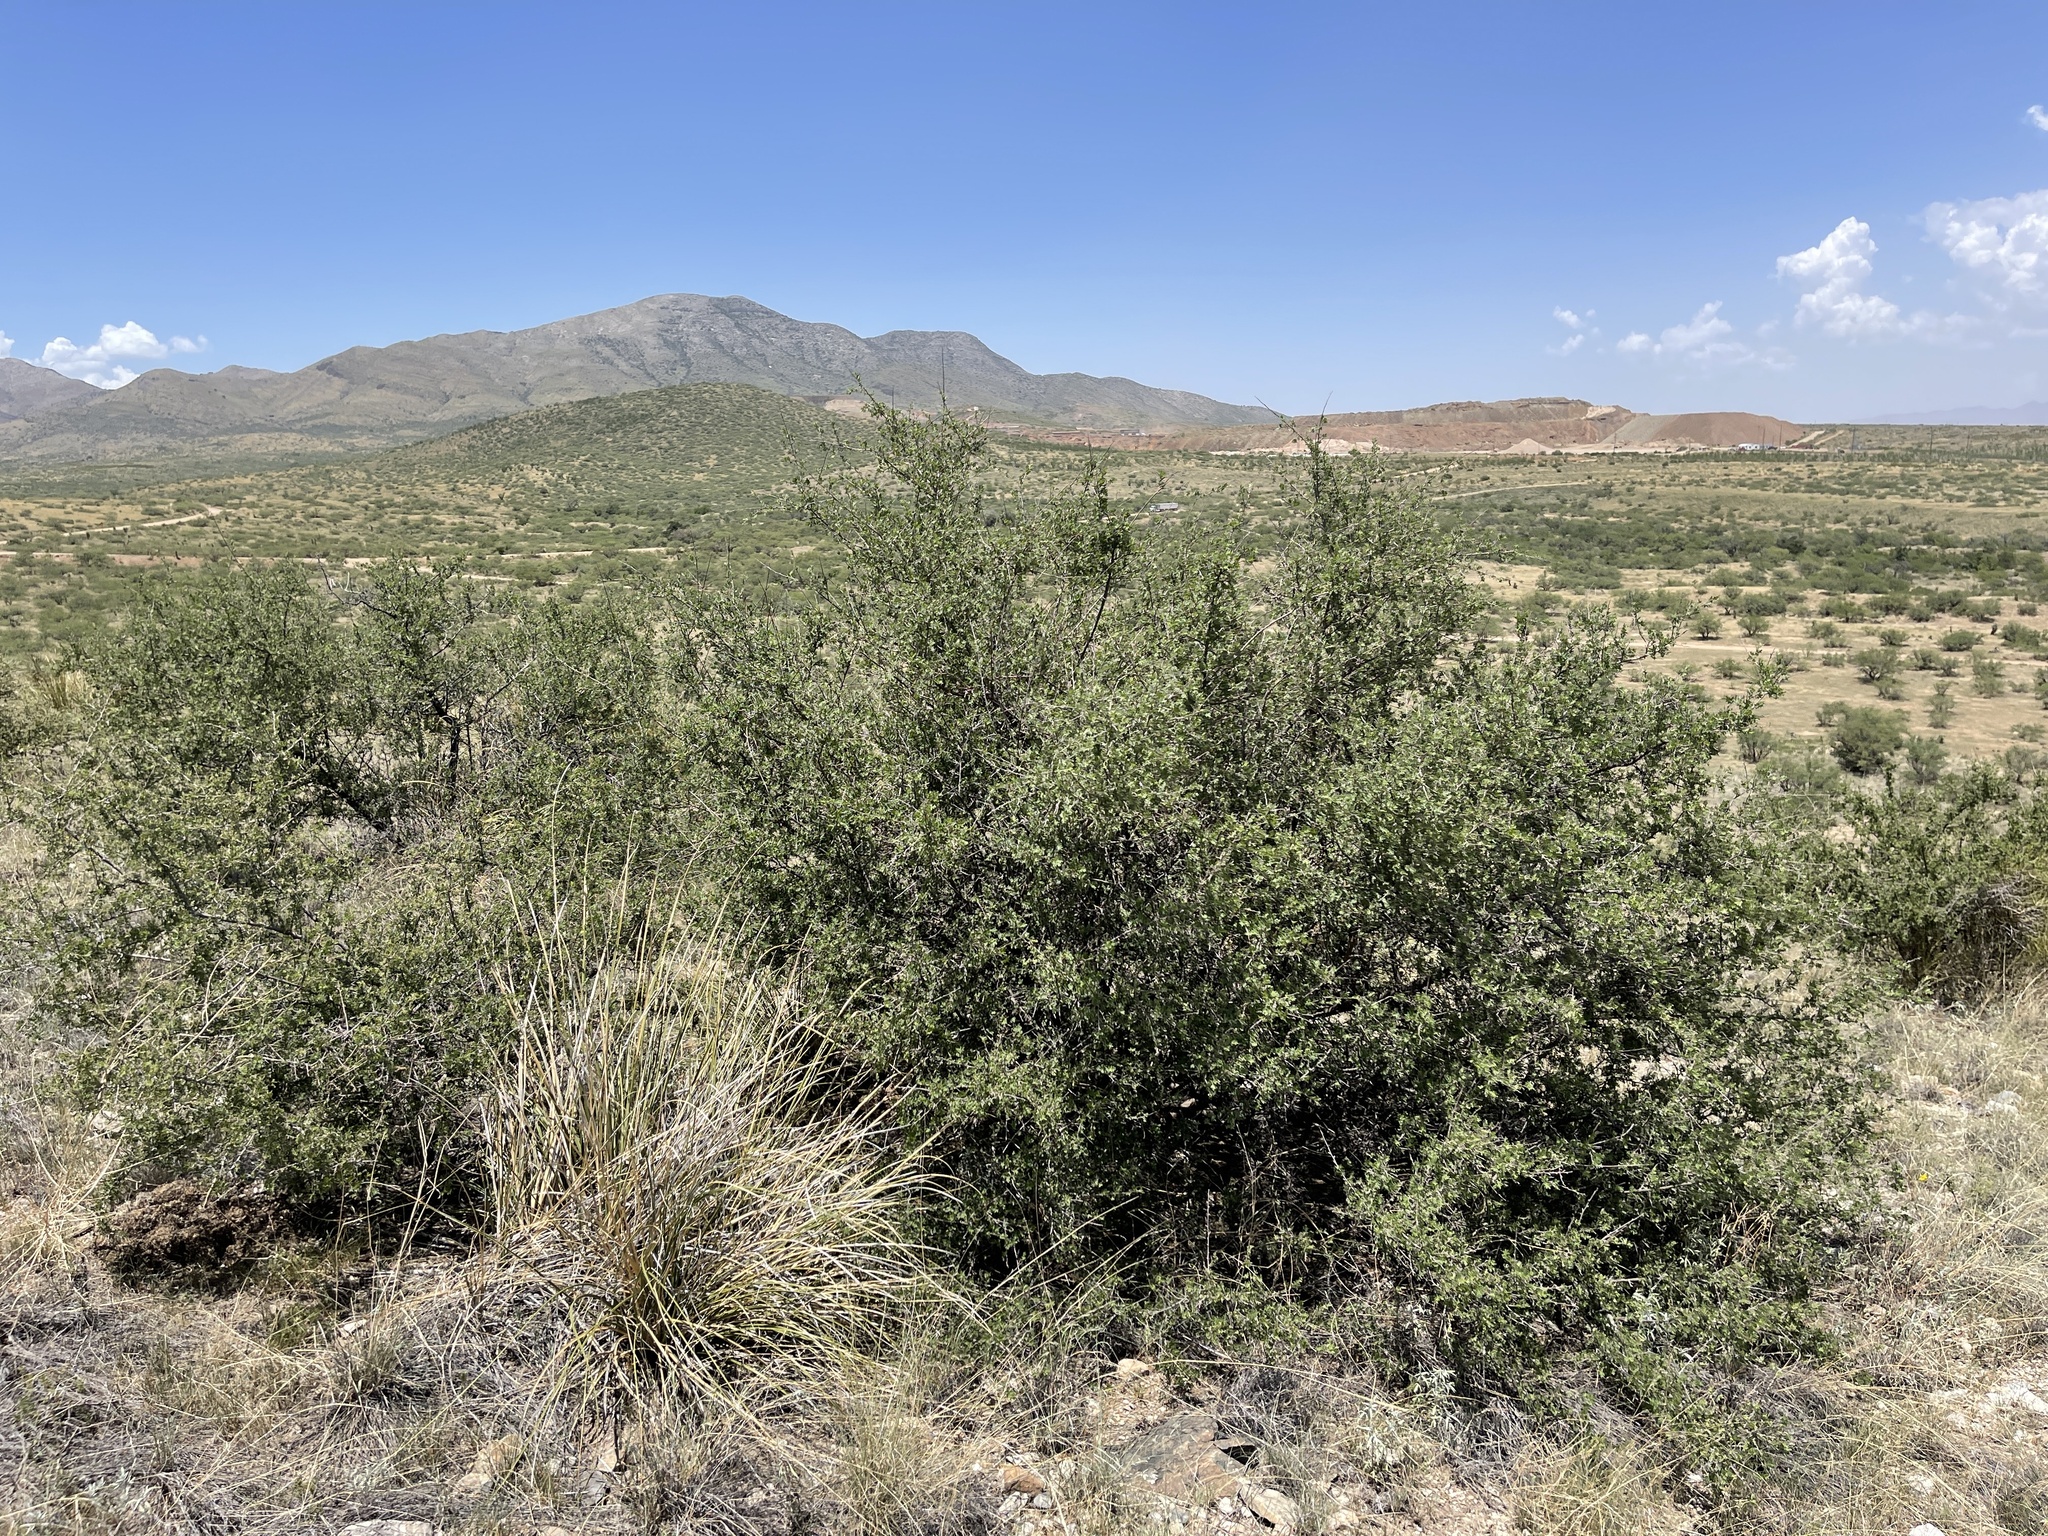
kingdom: Plantae
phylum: Tracheophyta
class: Magnoliopsida
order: Sapindales
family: Anacardiaceae
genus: Rhus
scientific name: Rhus microphylla
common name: Desert sumac
